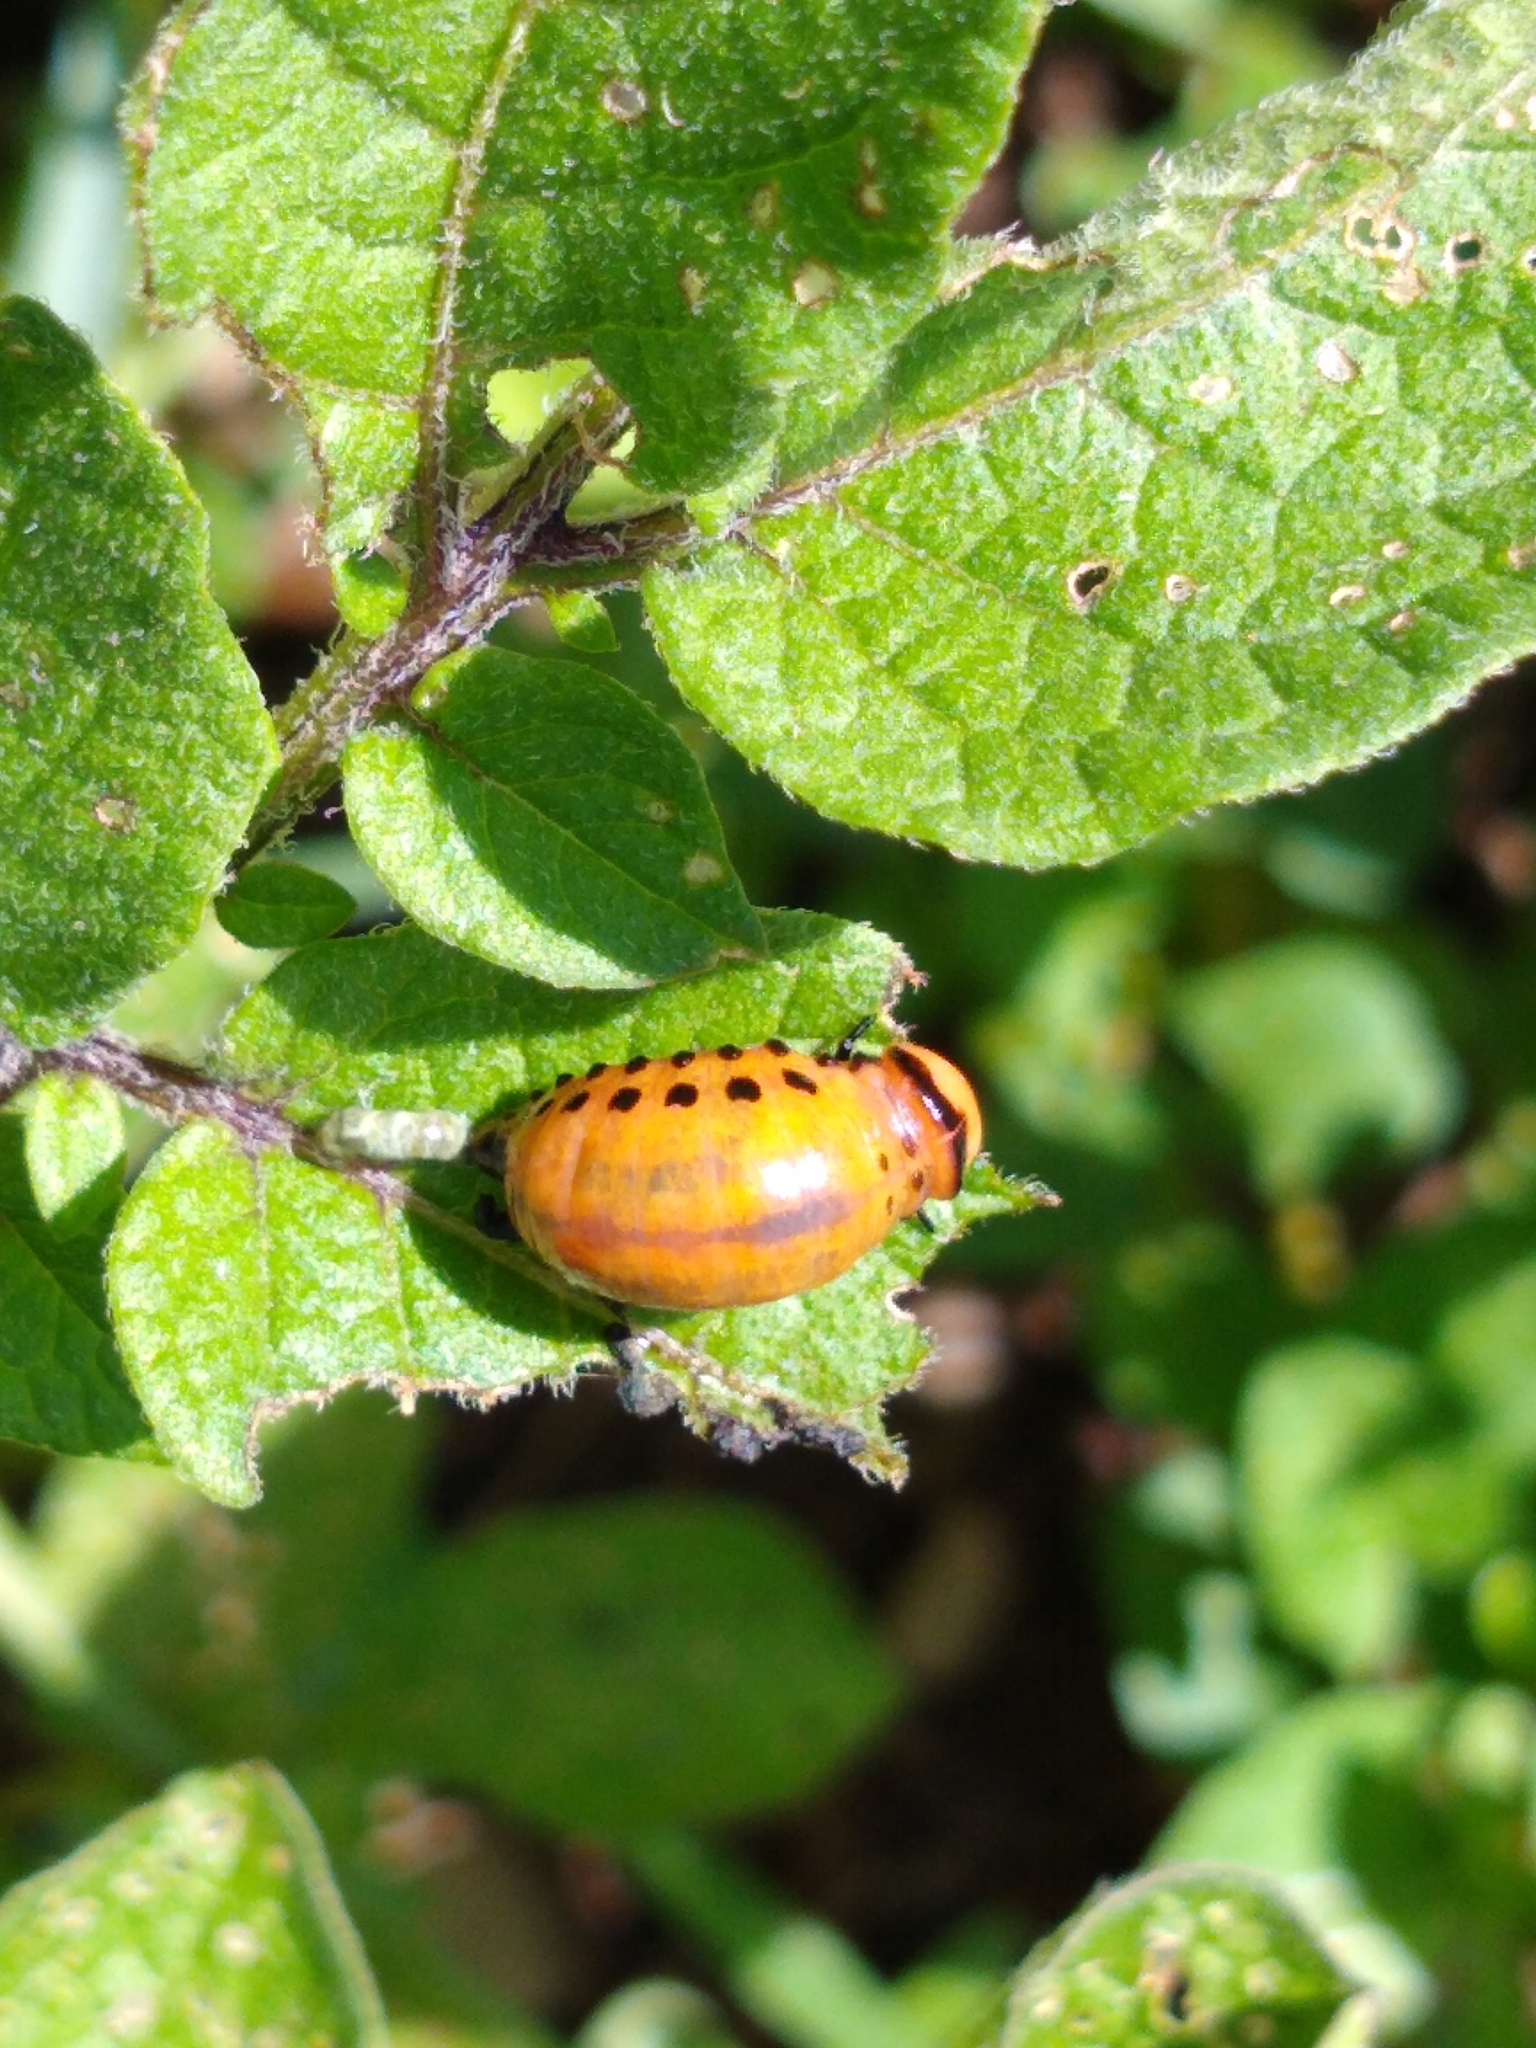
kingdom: Animalia
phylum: Arthropoda
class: Insecta
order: Coleoptera
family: Chrysomelidae
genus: Leptinotarsa
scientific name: Leptinotarsa decemlineata
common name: Colorado potato beetle
